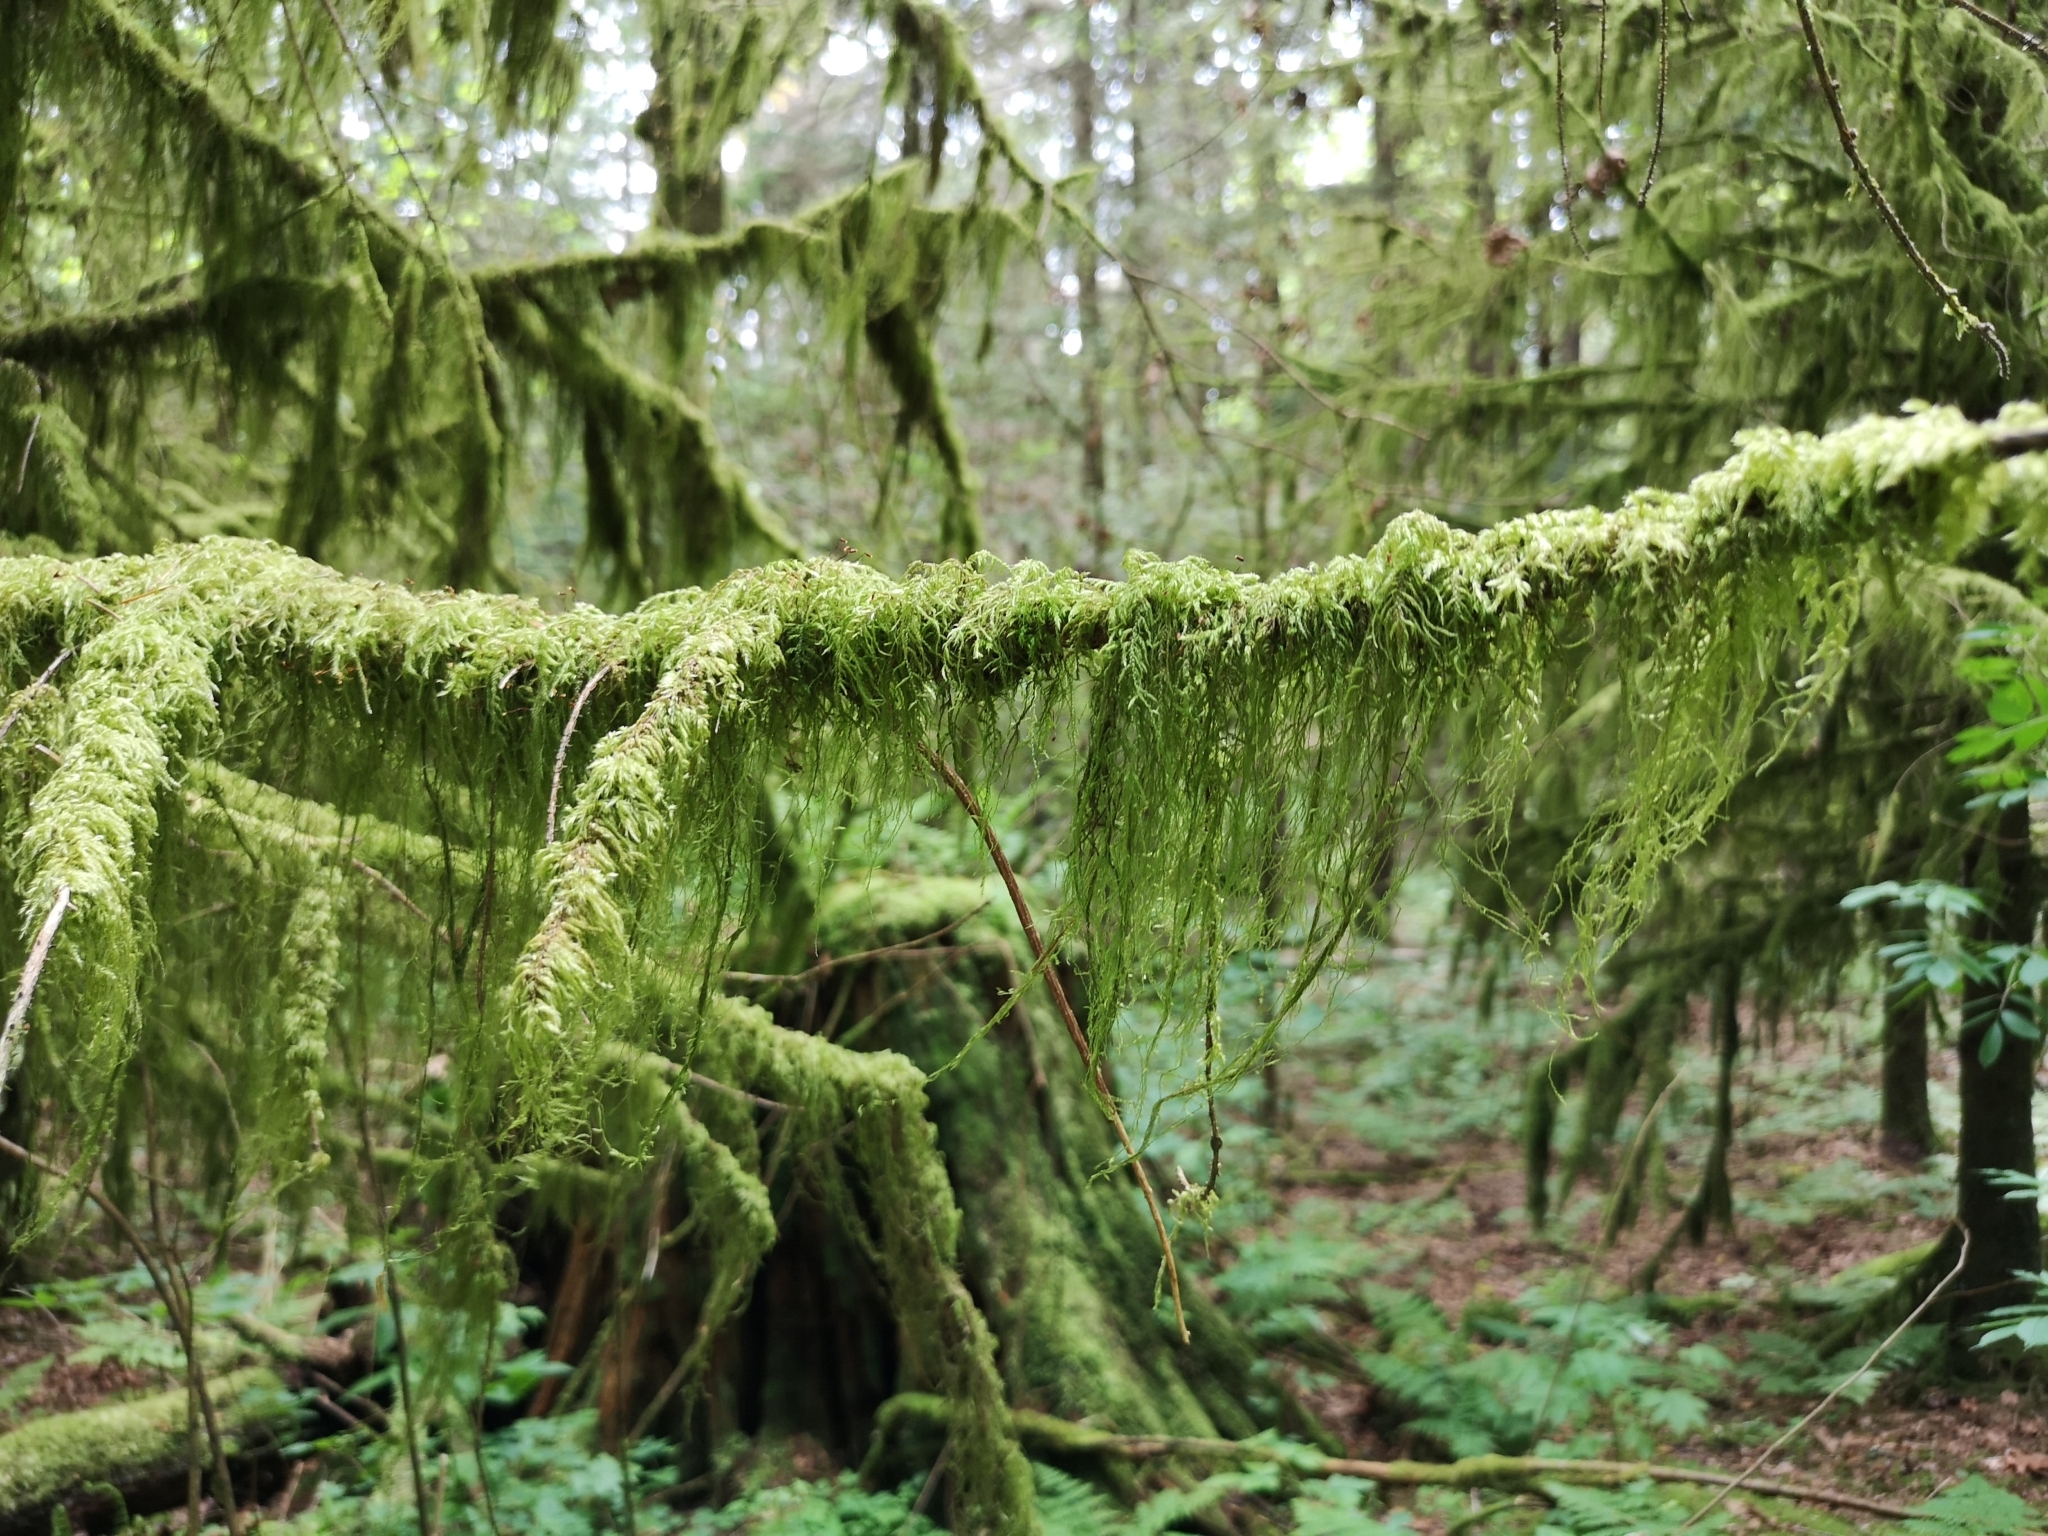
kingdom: Plantae
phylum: Bryophyta
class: Bryopsida
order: Hypnales
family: Lembophyllaceae
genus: Pseudisothecium
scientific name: Pseudisothecium stoloniferum
